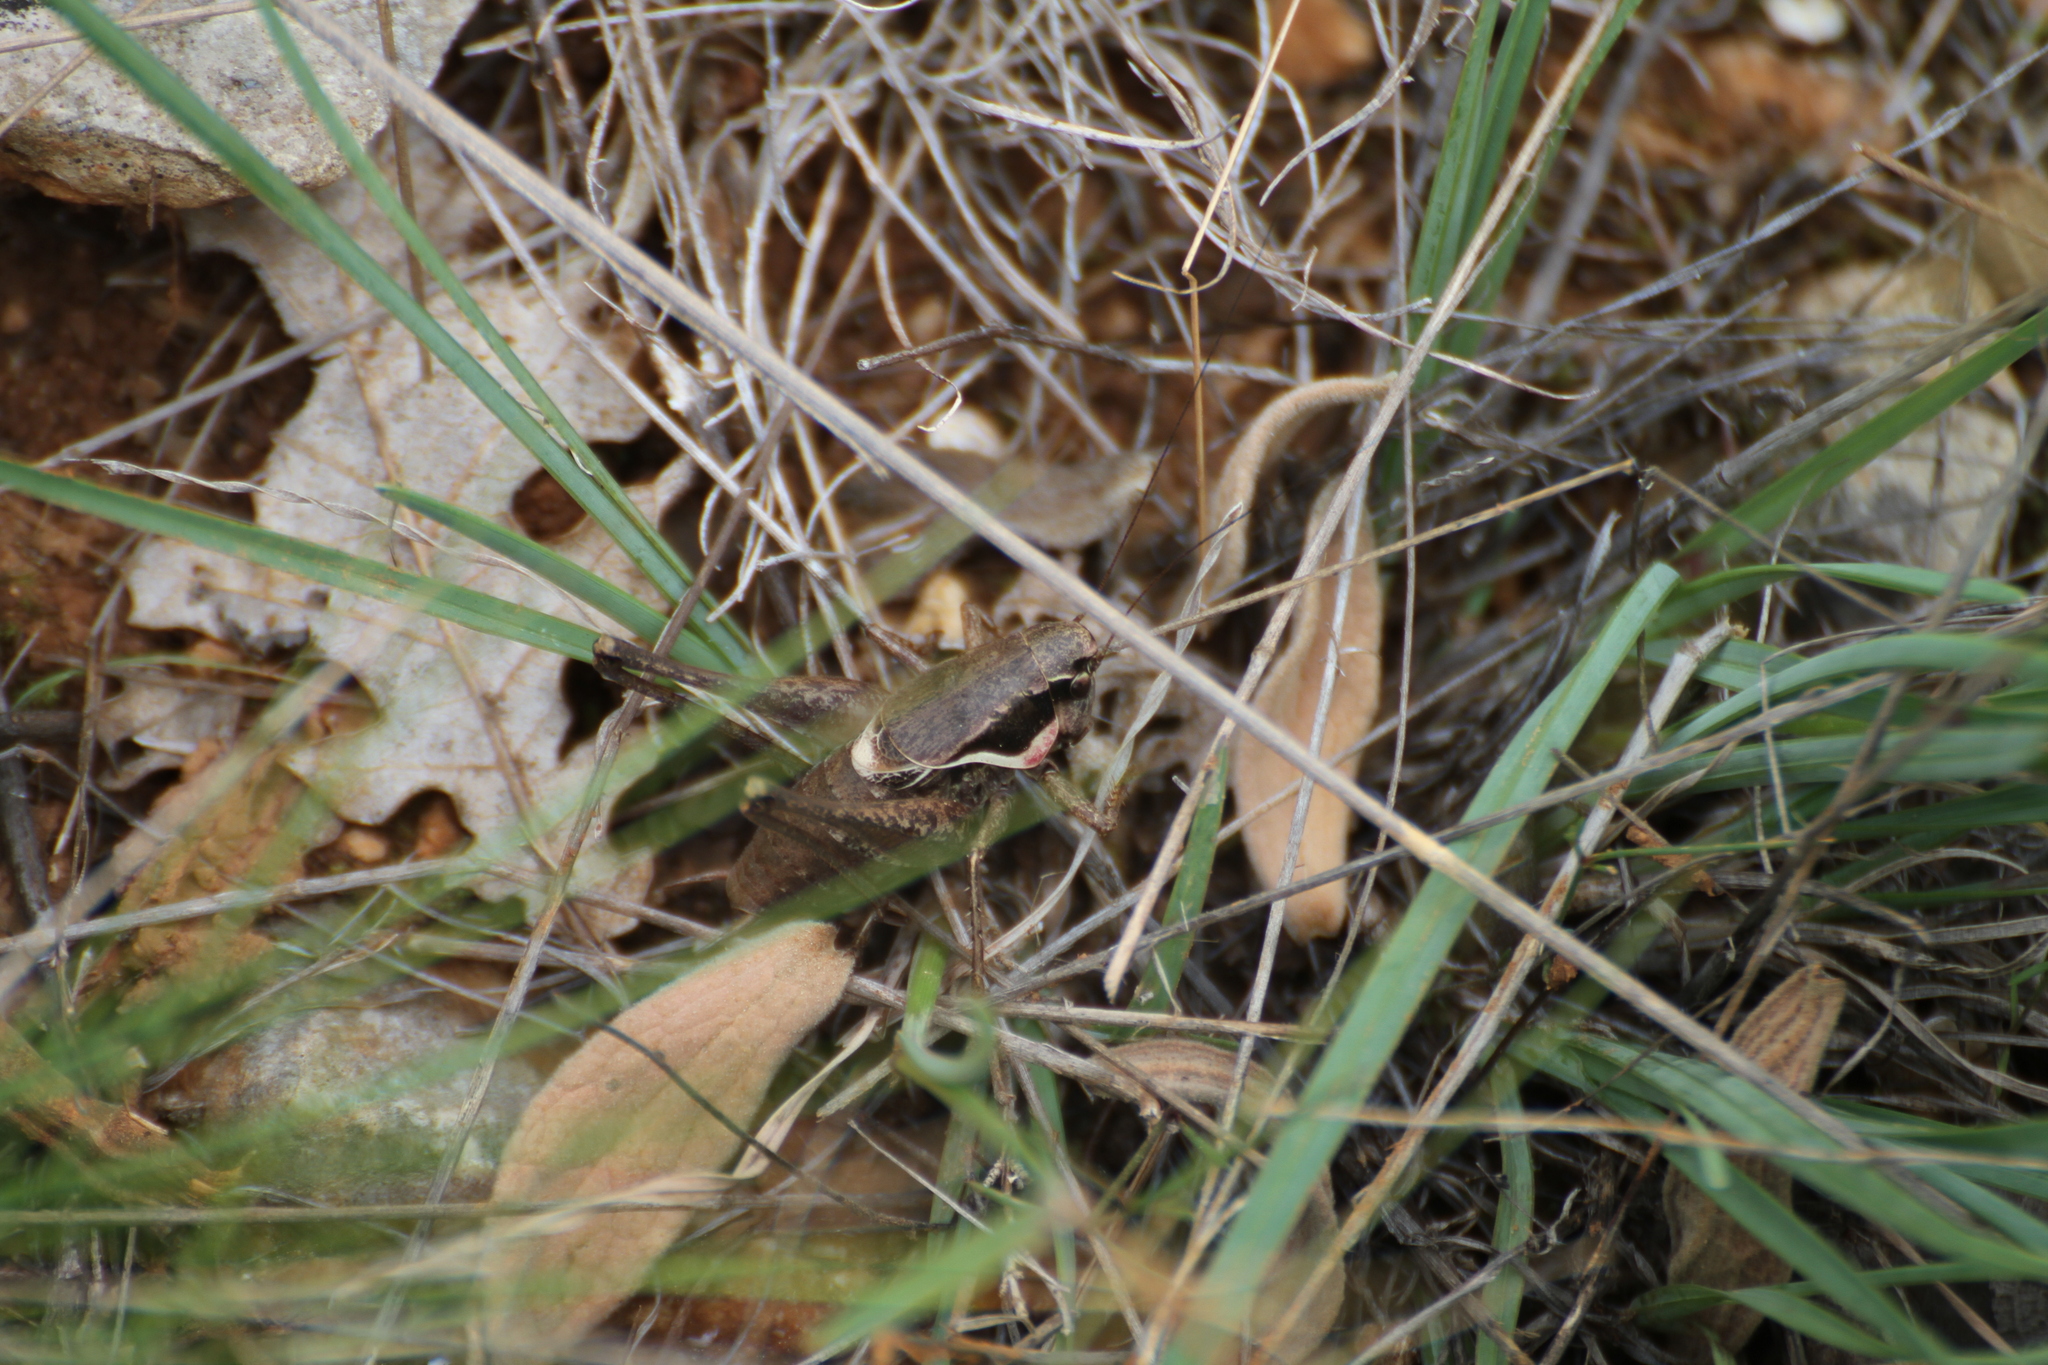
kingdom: Animalia
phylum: Arthropoda
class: Insecta
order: Orthoptera
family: Tettigoniidae
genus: Pholidoptera
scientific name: Pholidoptera femorata
